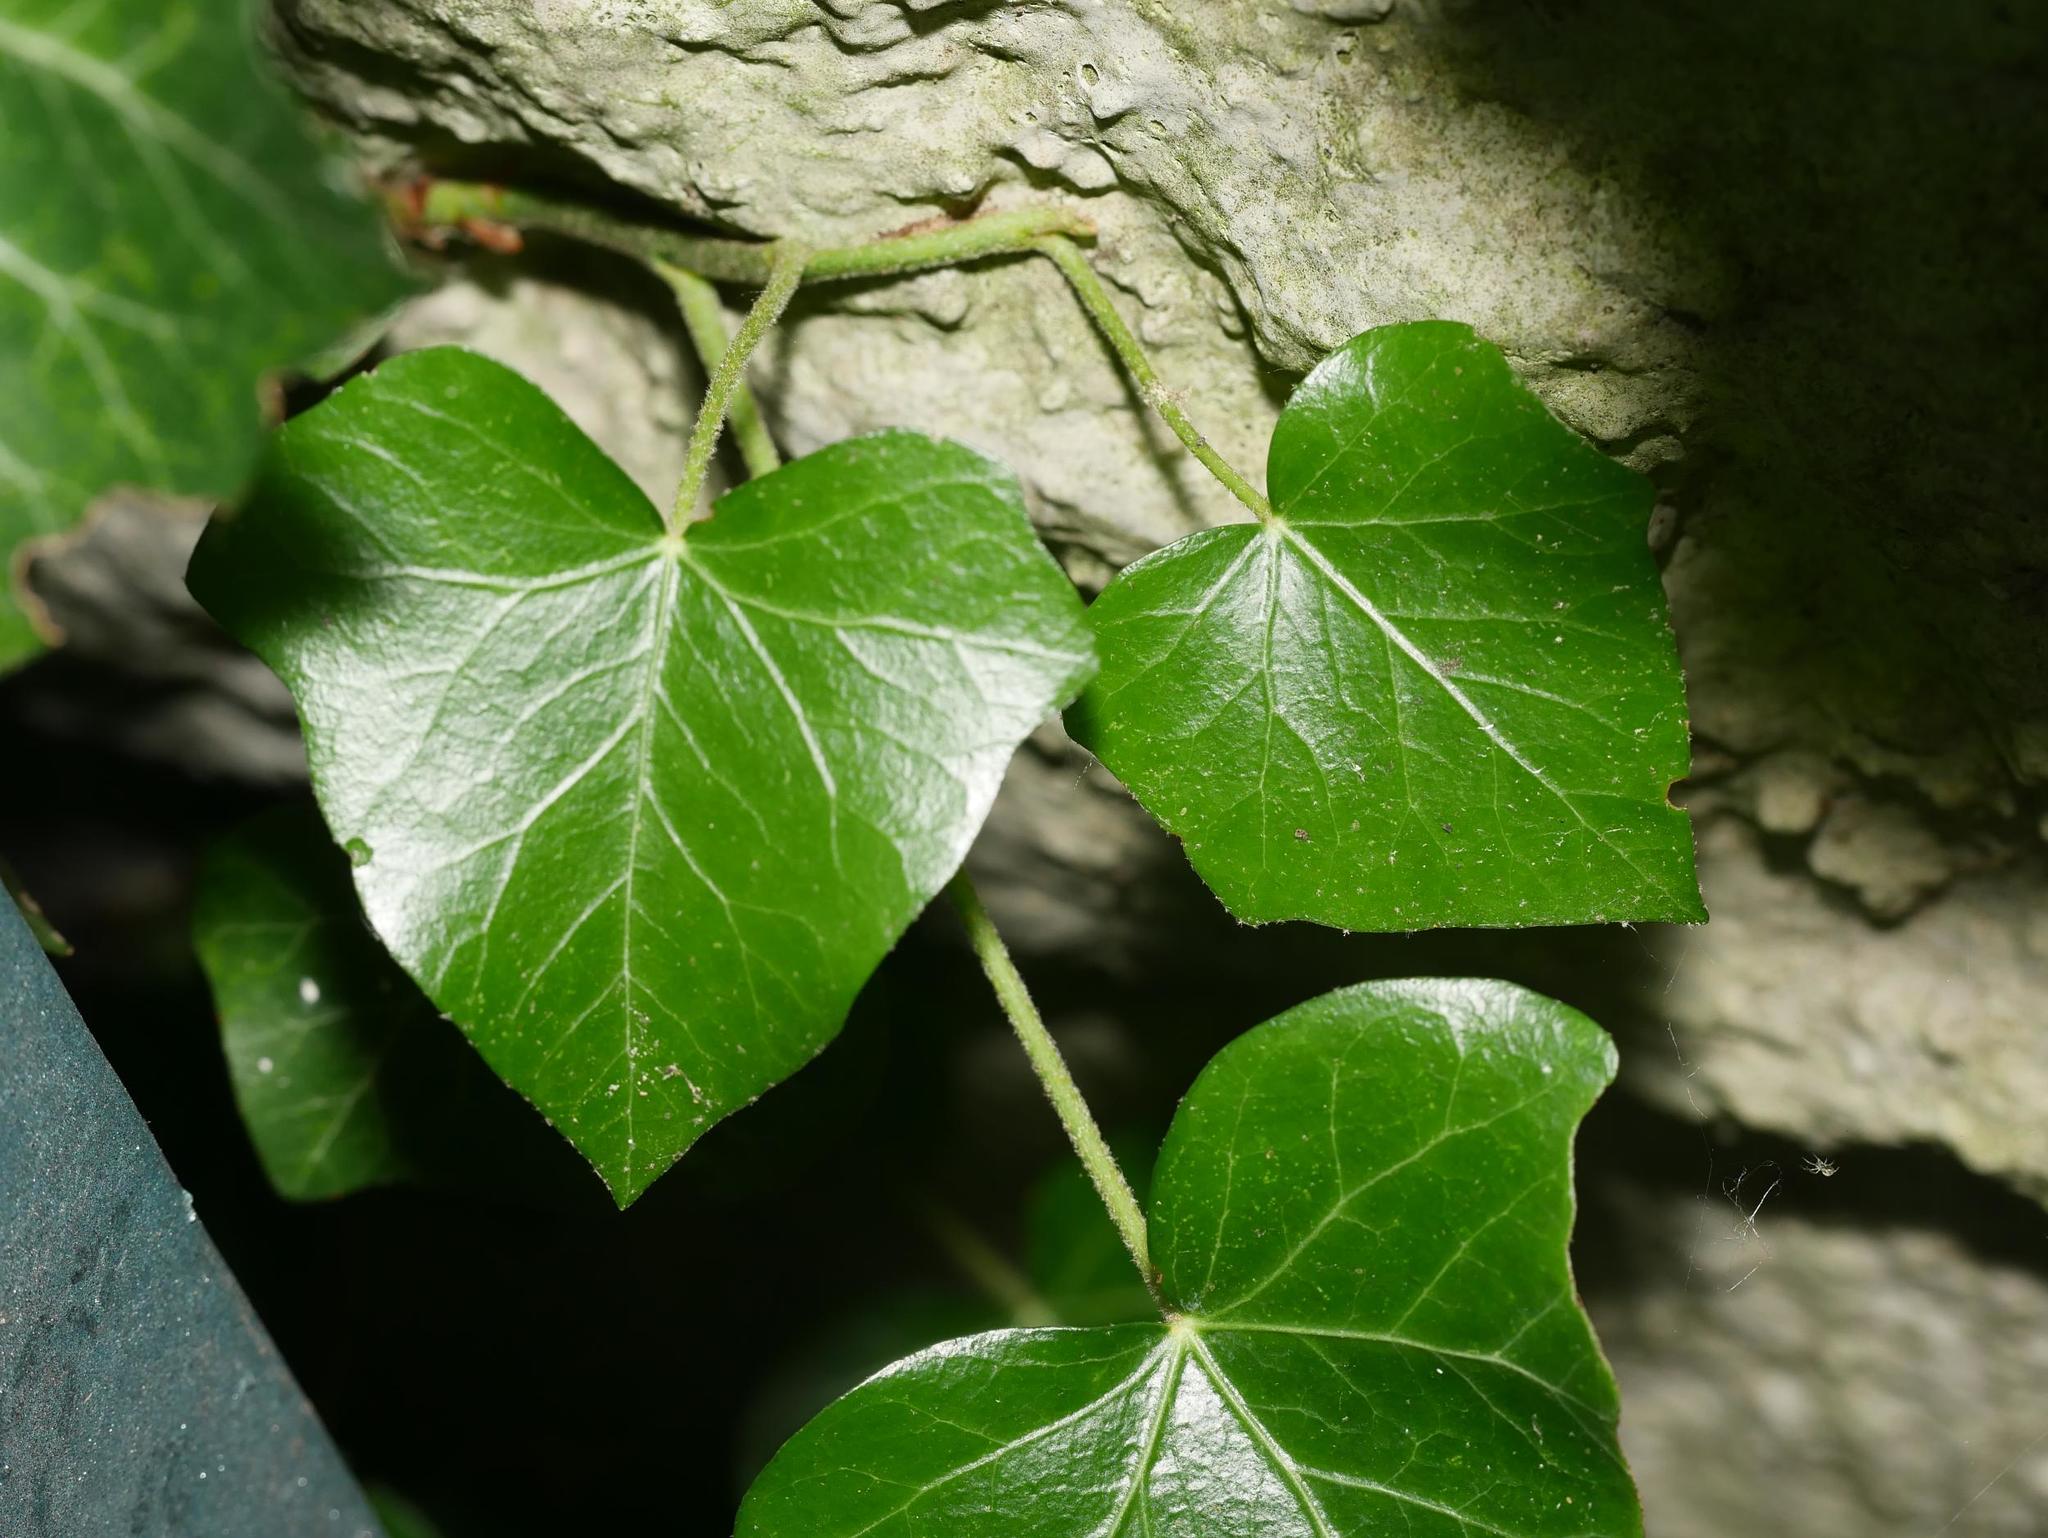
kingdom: Plantae
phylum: Tracheophyta
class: Magnoliopsida
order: Apiales
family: Araliaceae
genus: Hedera
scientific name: Hedera helix
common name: Ivy
